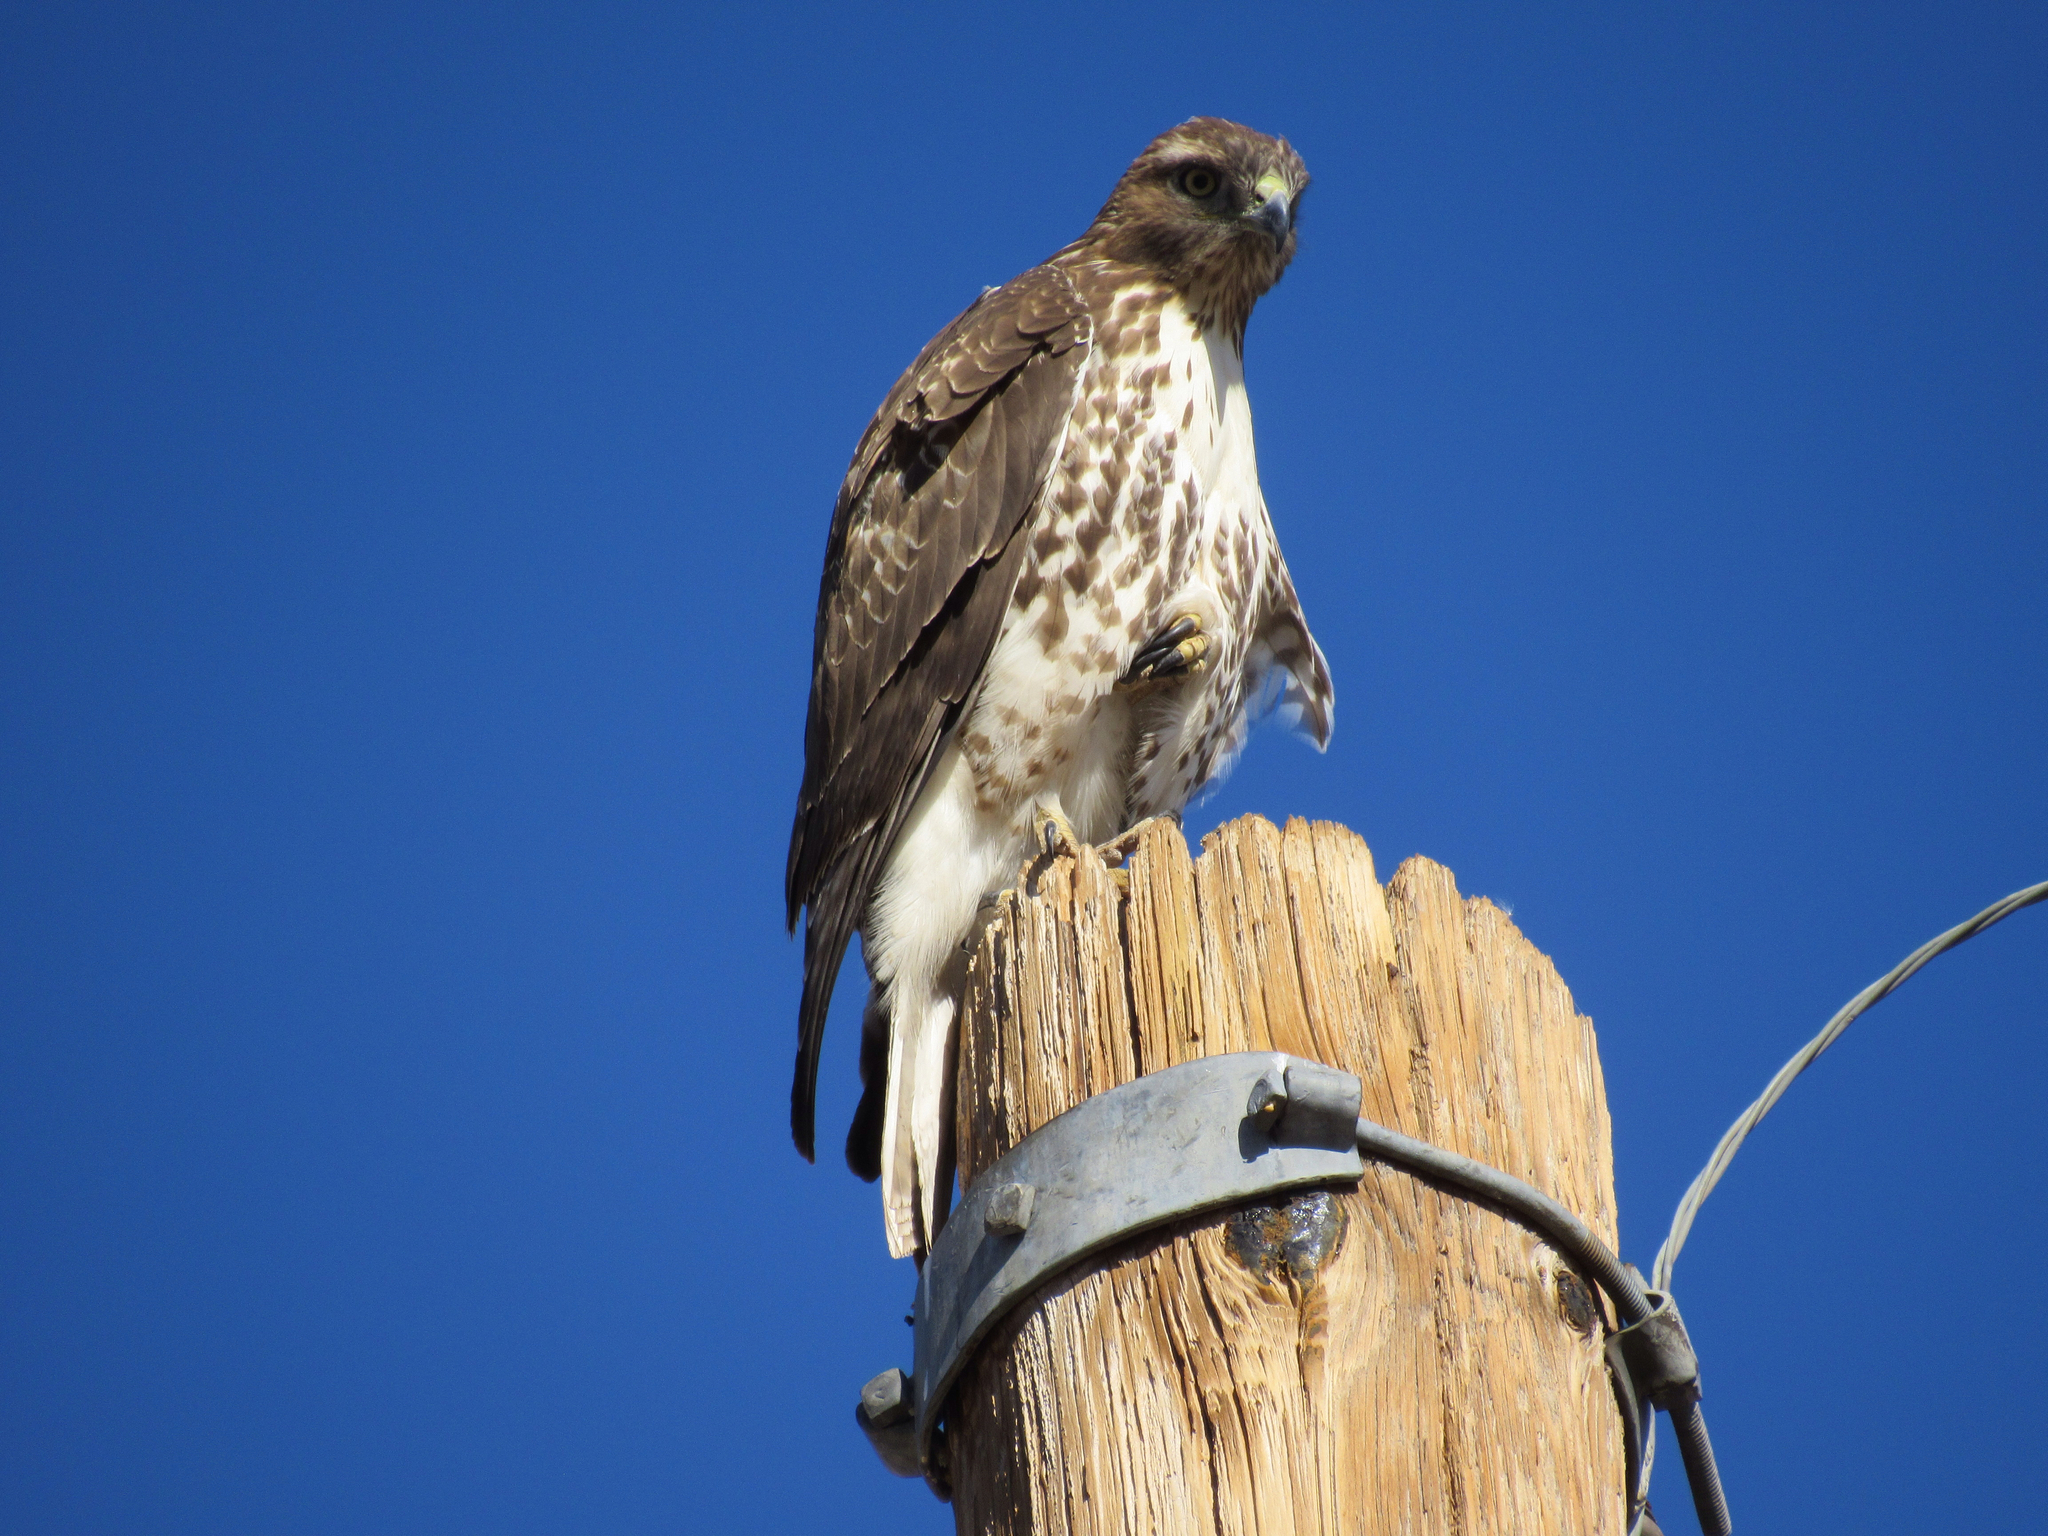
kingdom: Animalia
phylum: Chordata
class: Aves
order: Accipitriformes
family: Accipitridae
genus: Buteo
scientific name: Buteo jamaicensis
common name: Red-tailed hawk
